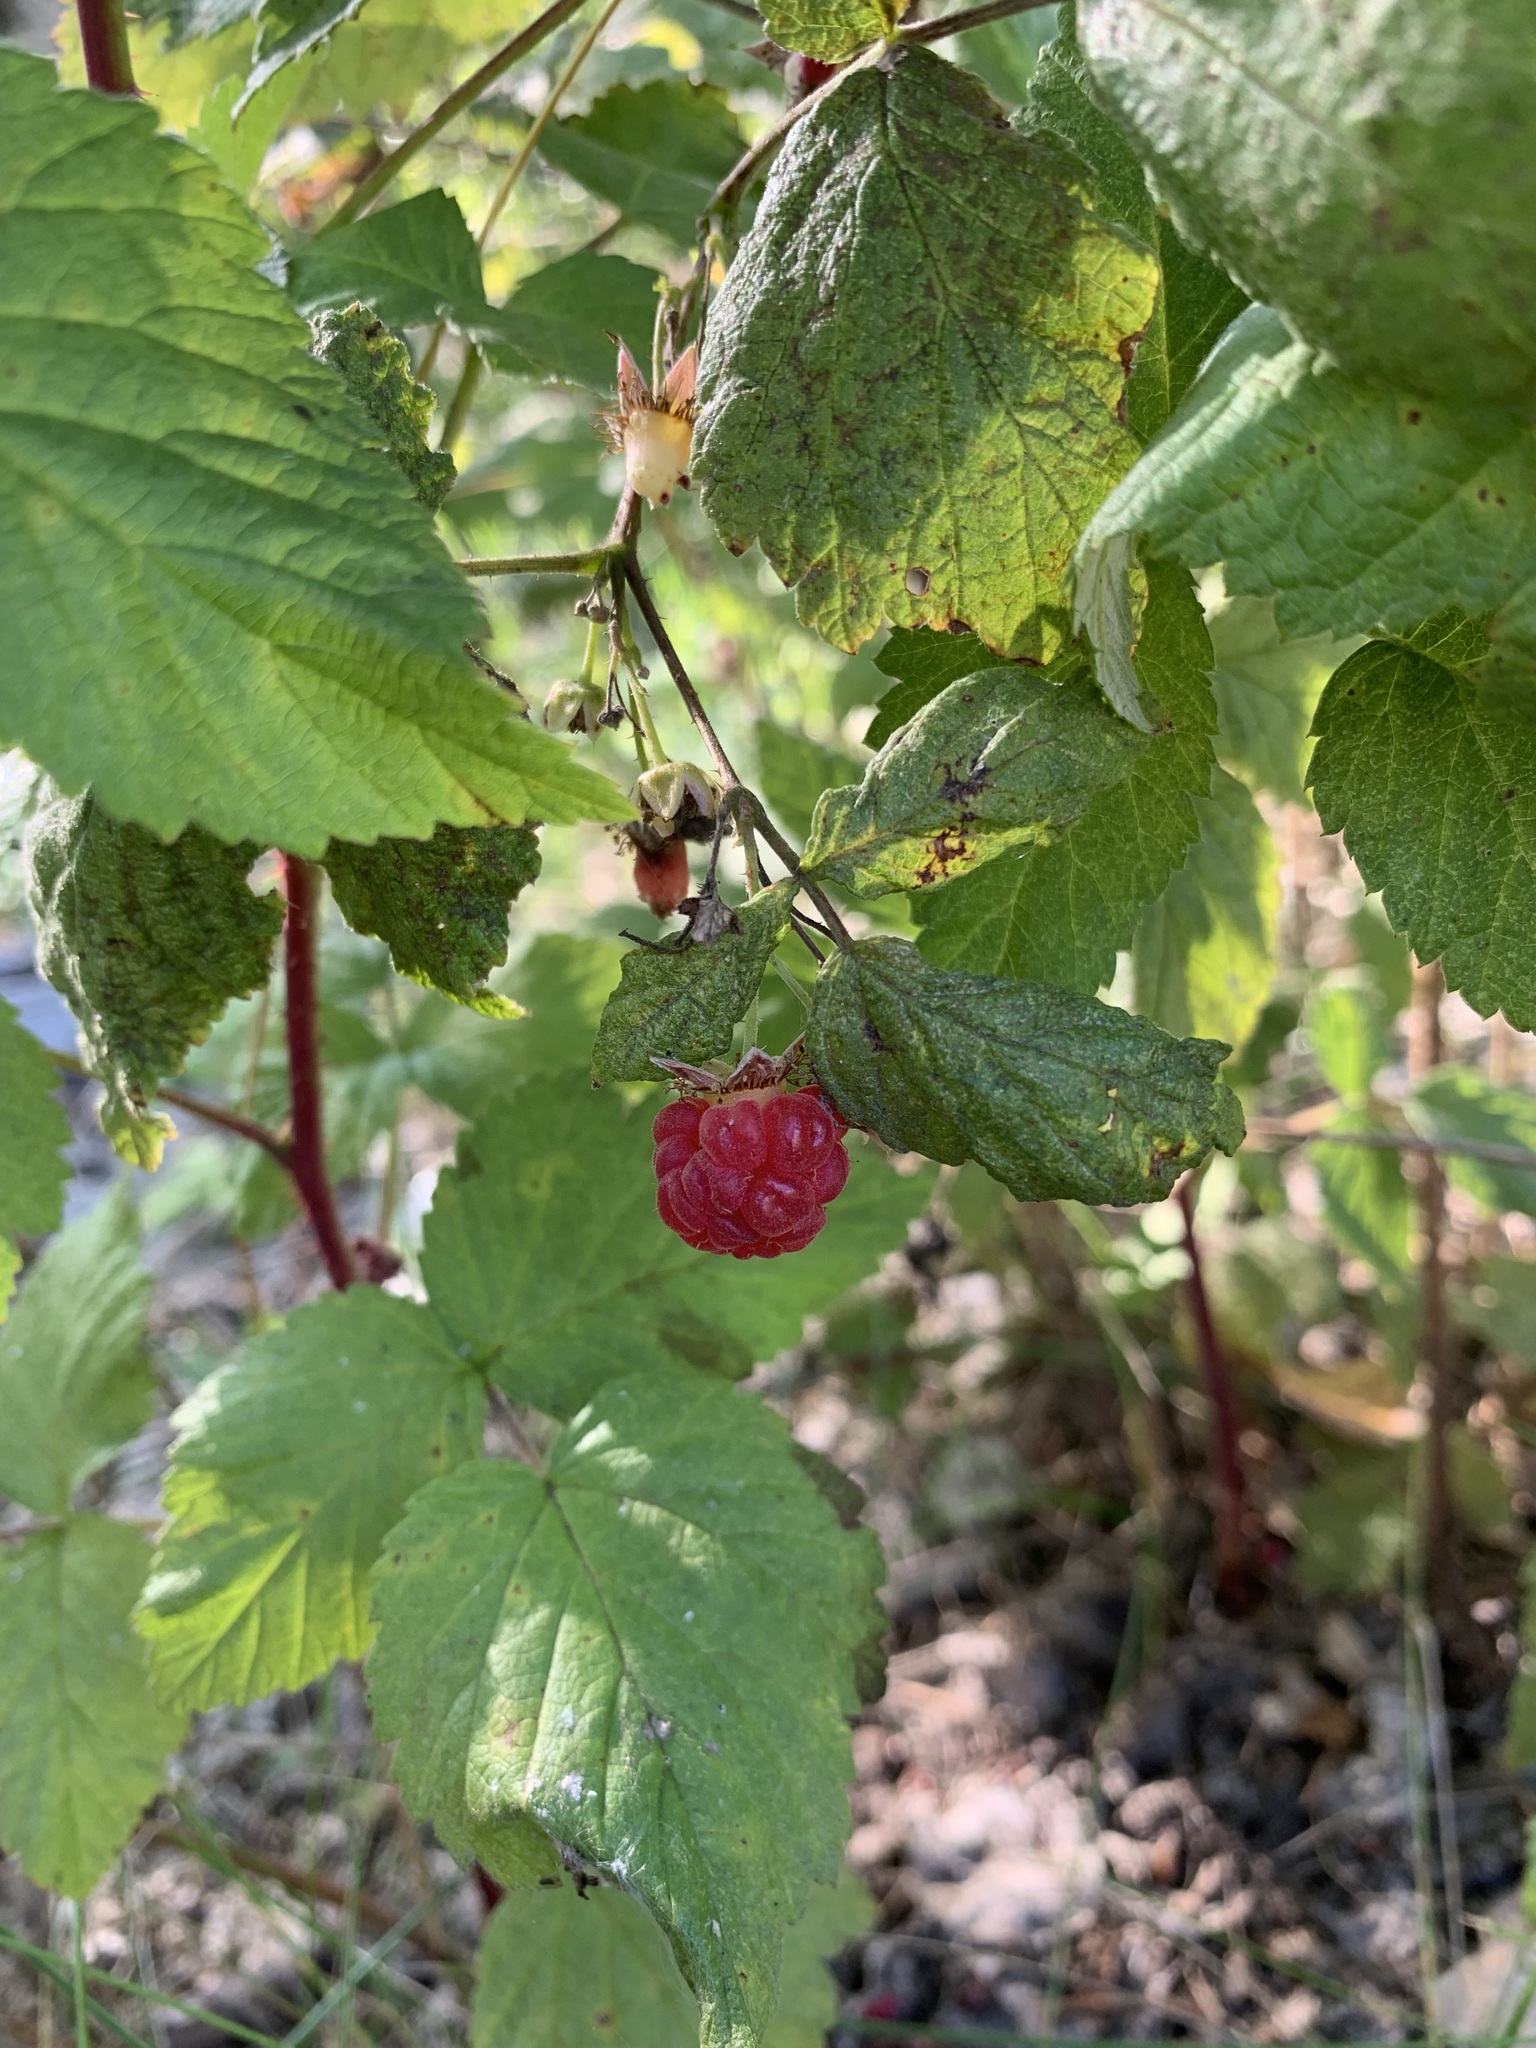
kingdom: Plantae
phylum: Tracheophyta
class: Magnoliopsida
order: Rosales
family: Rosaceae
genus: Rubus
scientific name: Rubus idaeus
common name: Raspberry
